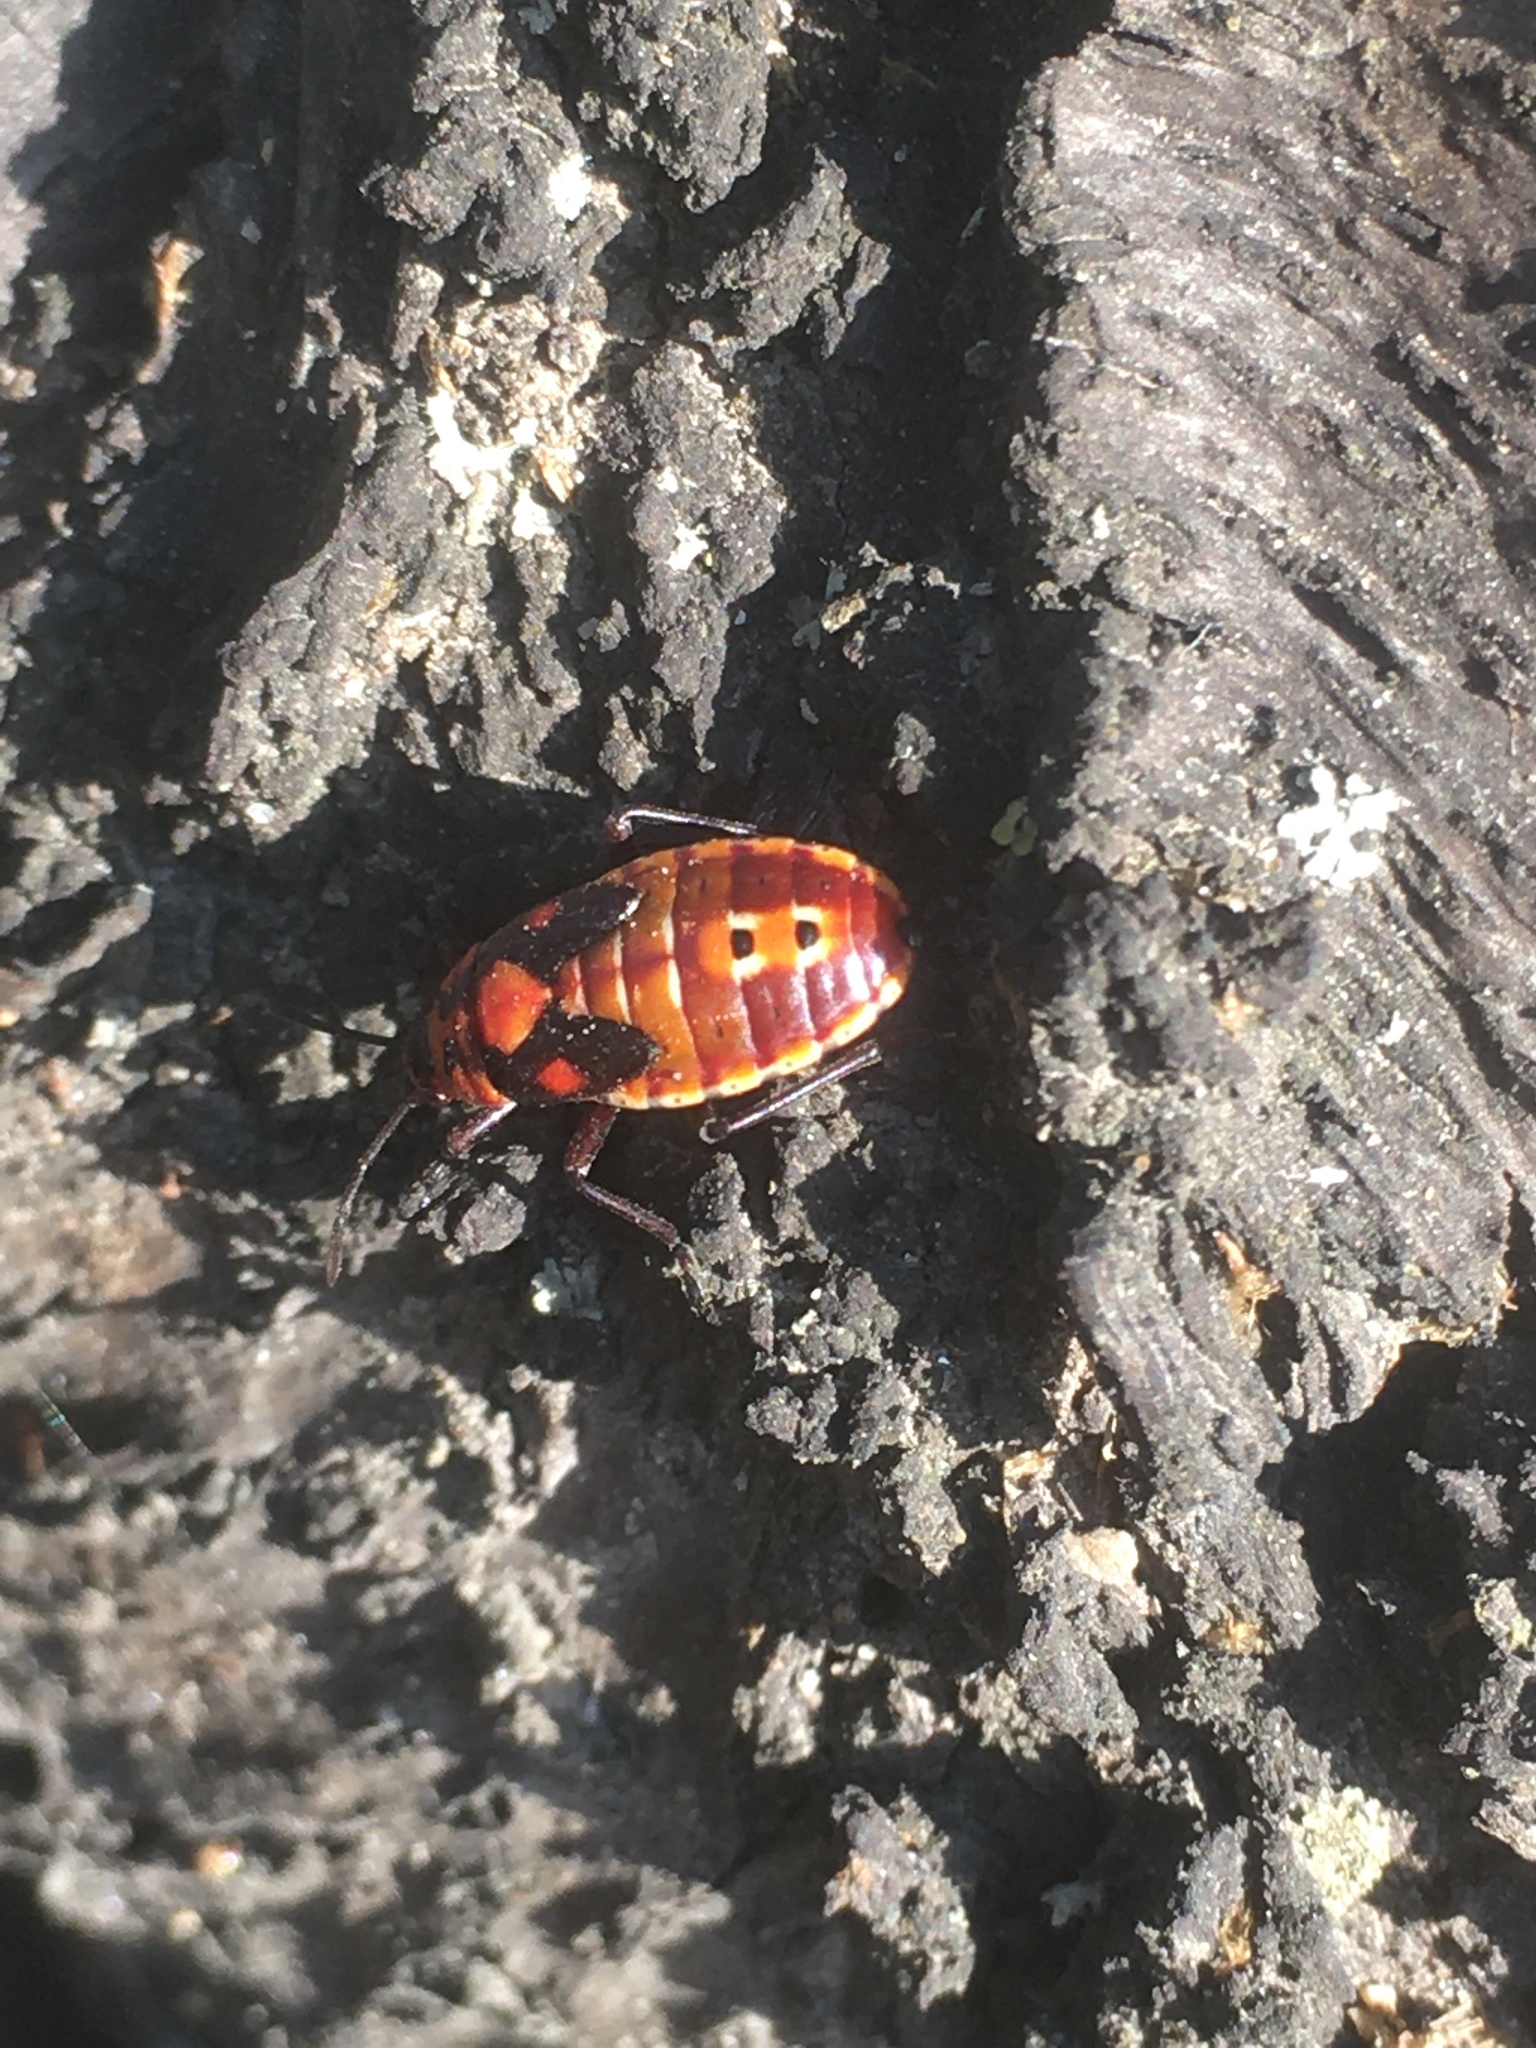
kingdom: Animalia
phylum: Arthropoda
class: Insecta
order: Hemiptera
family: Lygaeidae
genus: Spilostethus
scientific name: Spilostethus pandurus
